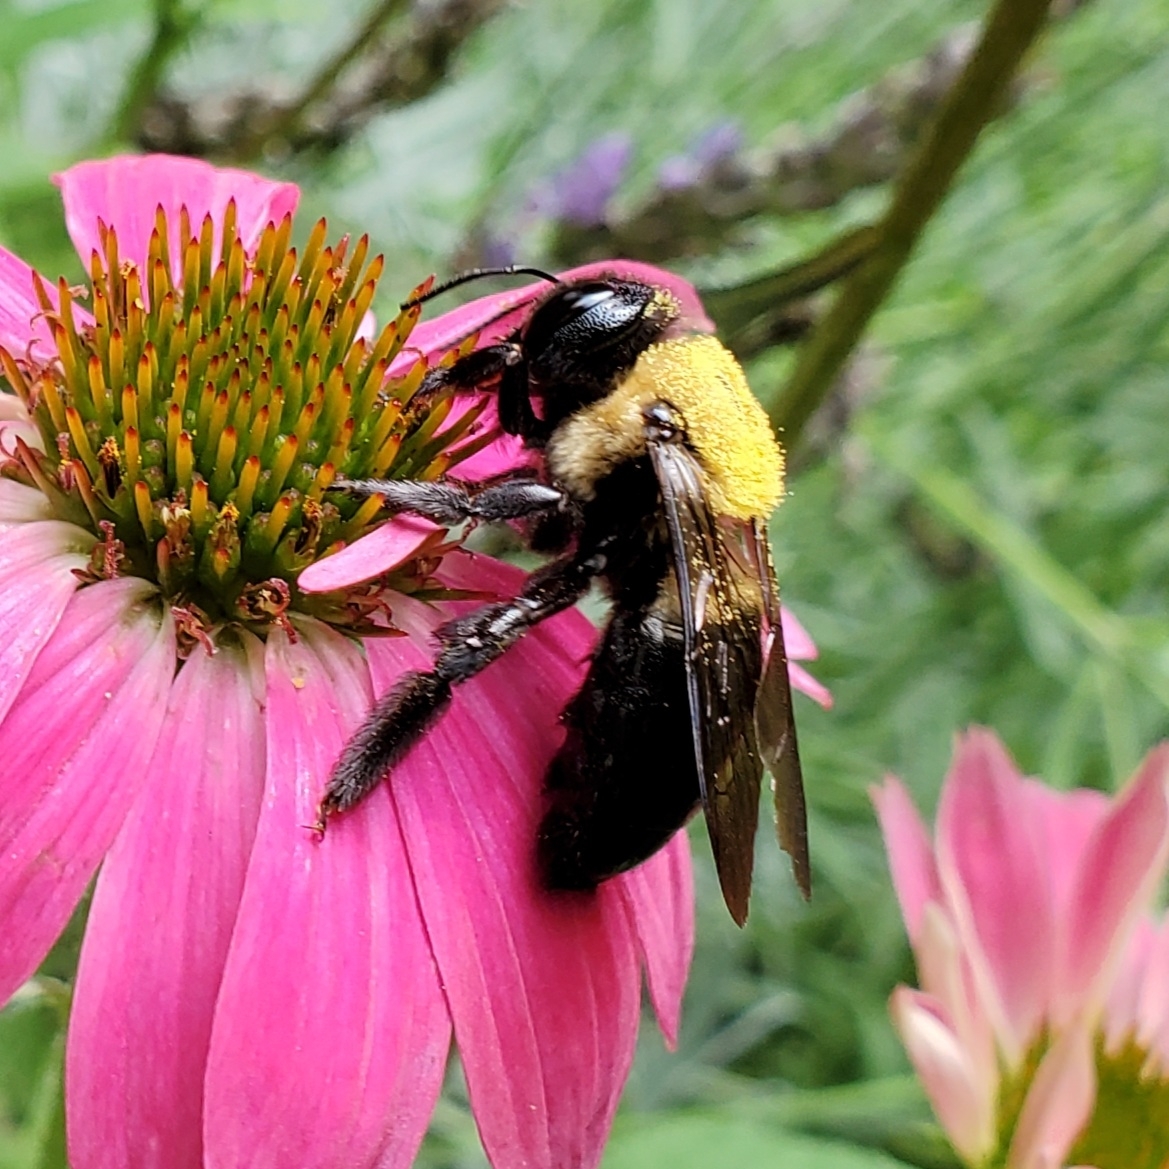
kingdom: Animalia
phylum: Arthropoda
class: Insecta
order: Hymenoptera
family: Apidae
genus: Xylocopa
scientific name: Xylocopa virginica
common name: Carpenter bee
